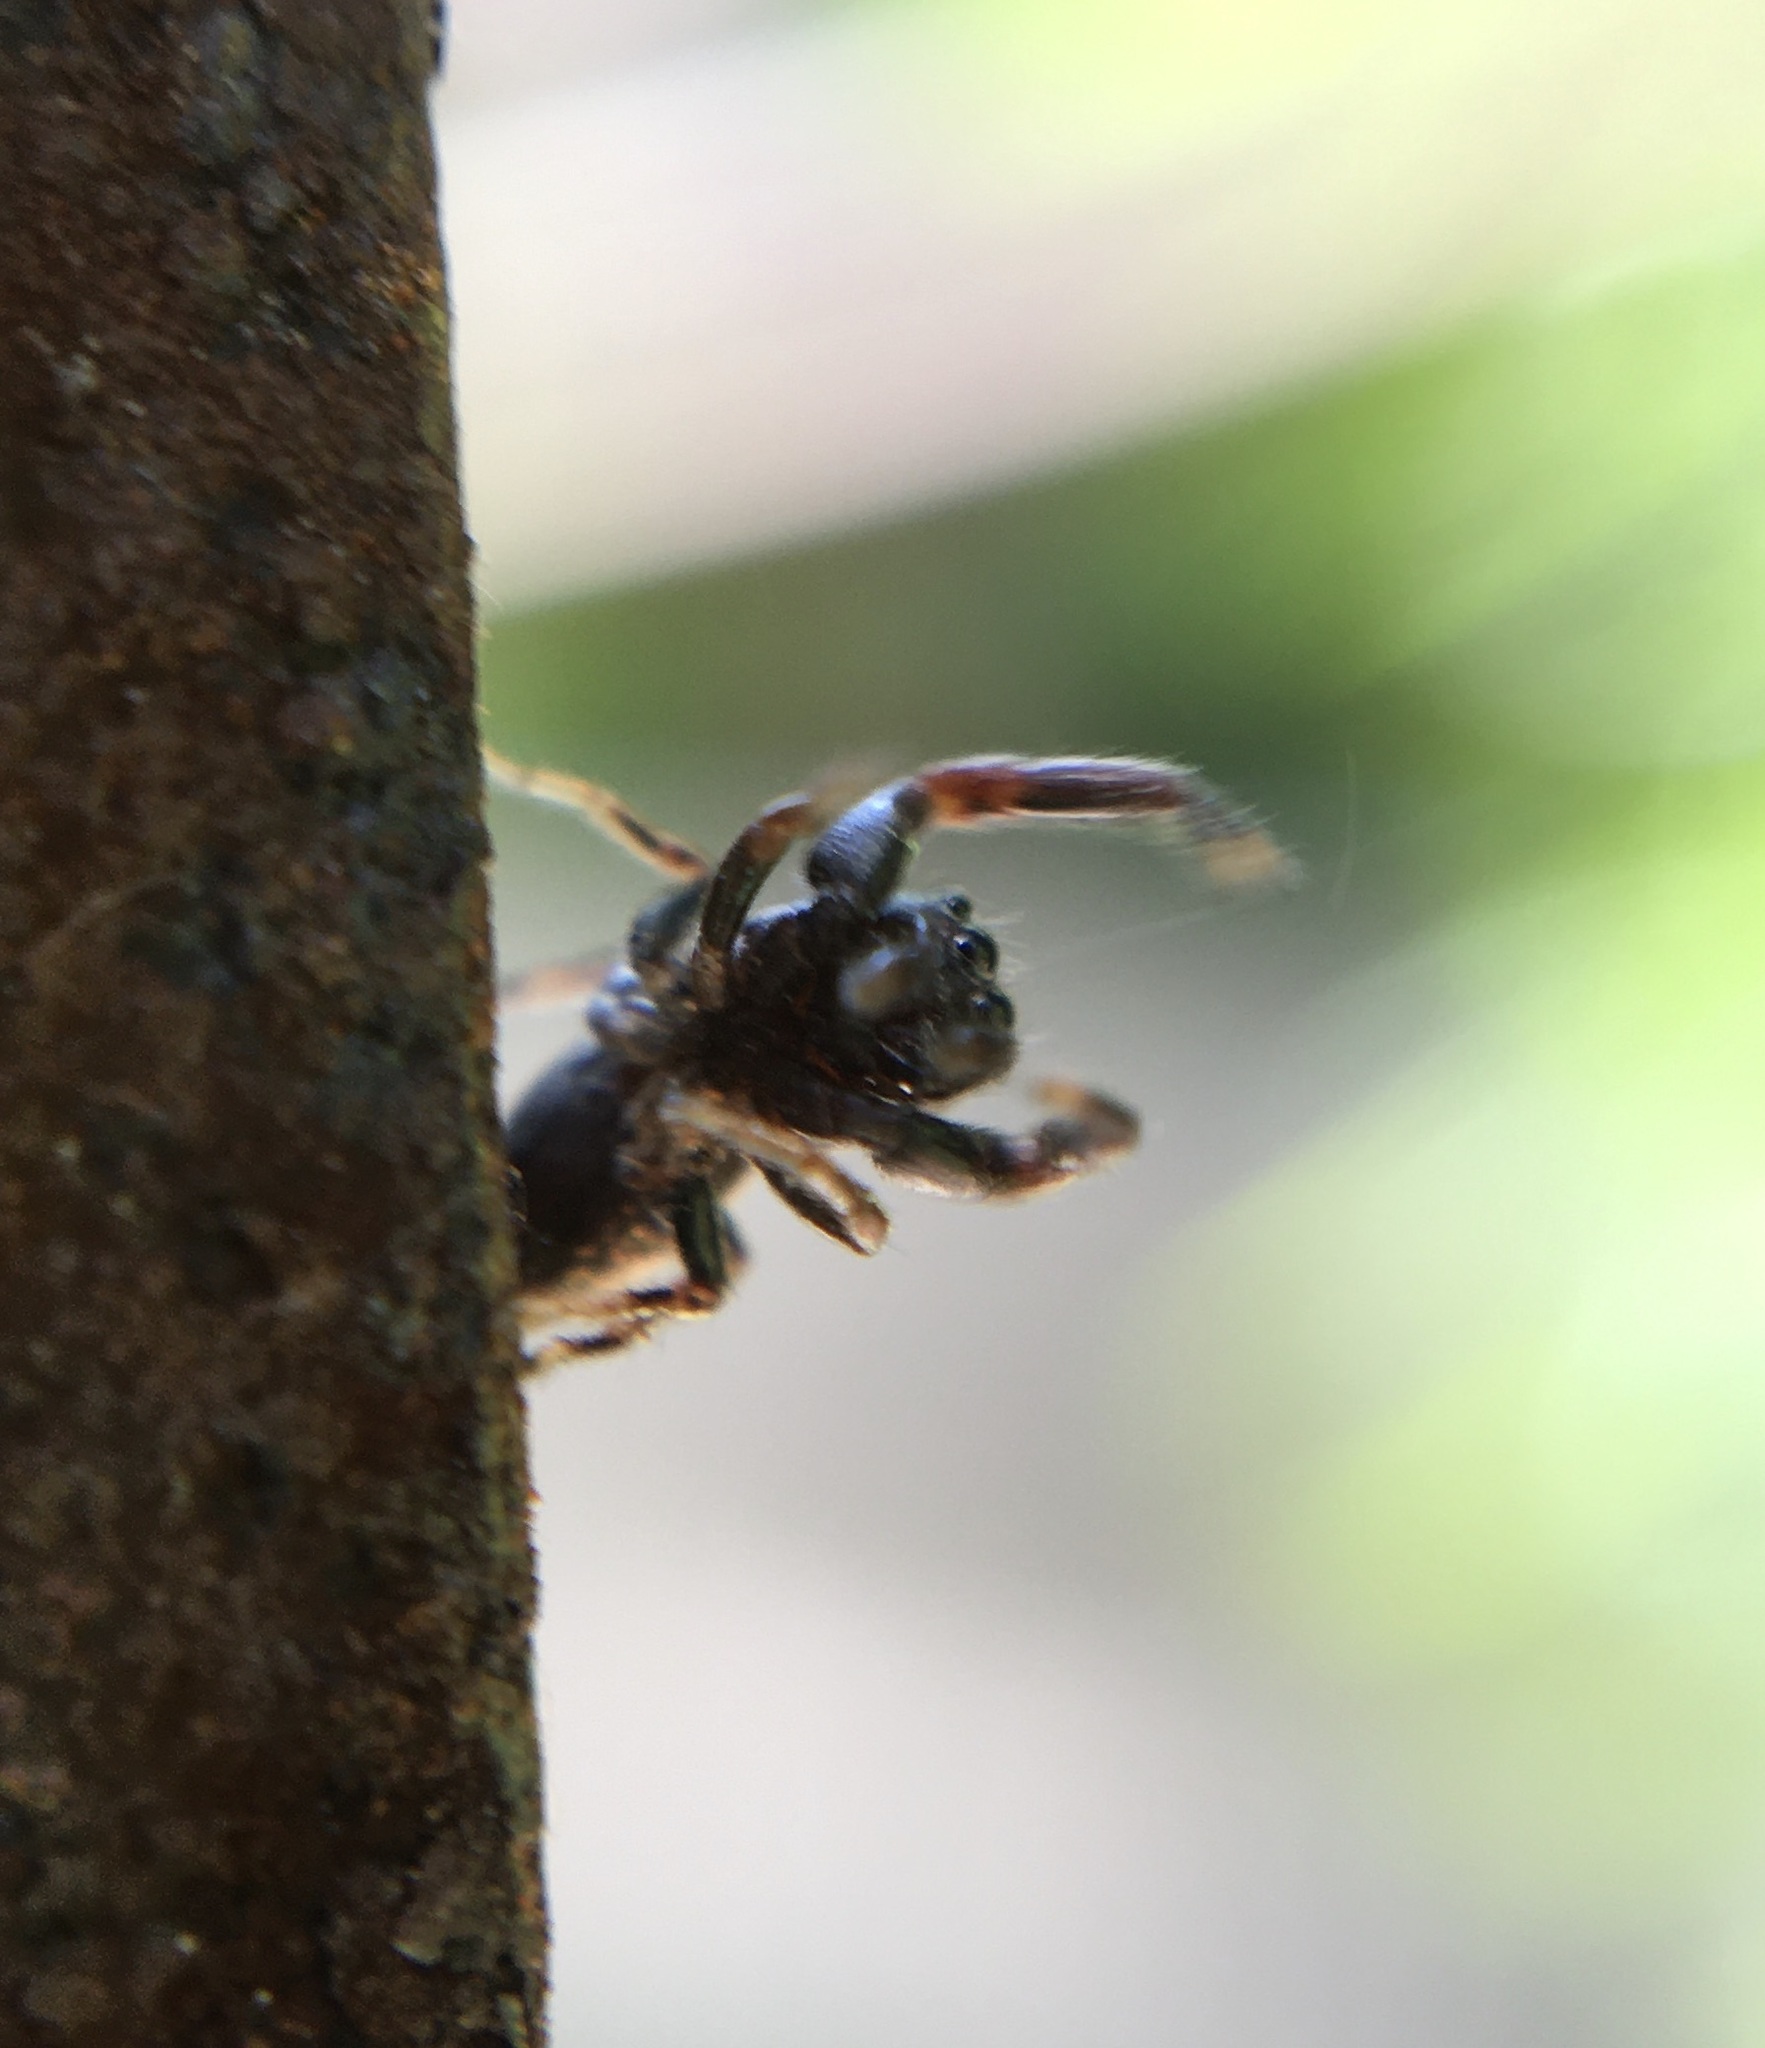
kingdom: Animalia
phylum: Arthropoda
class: Arachnida
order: Araneae
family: Salticidae
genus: Sassacus
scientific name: Sassacus vitis
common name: Jumping spiders
